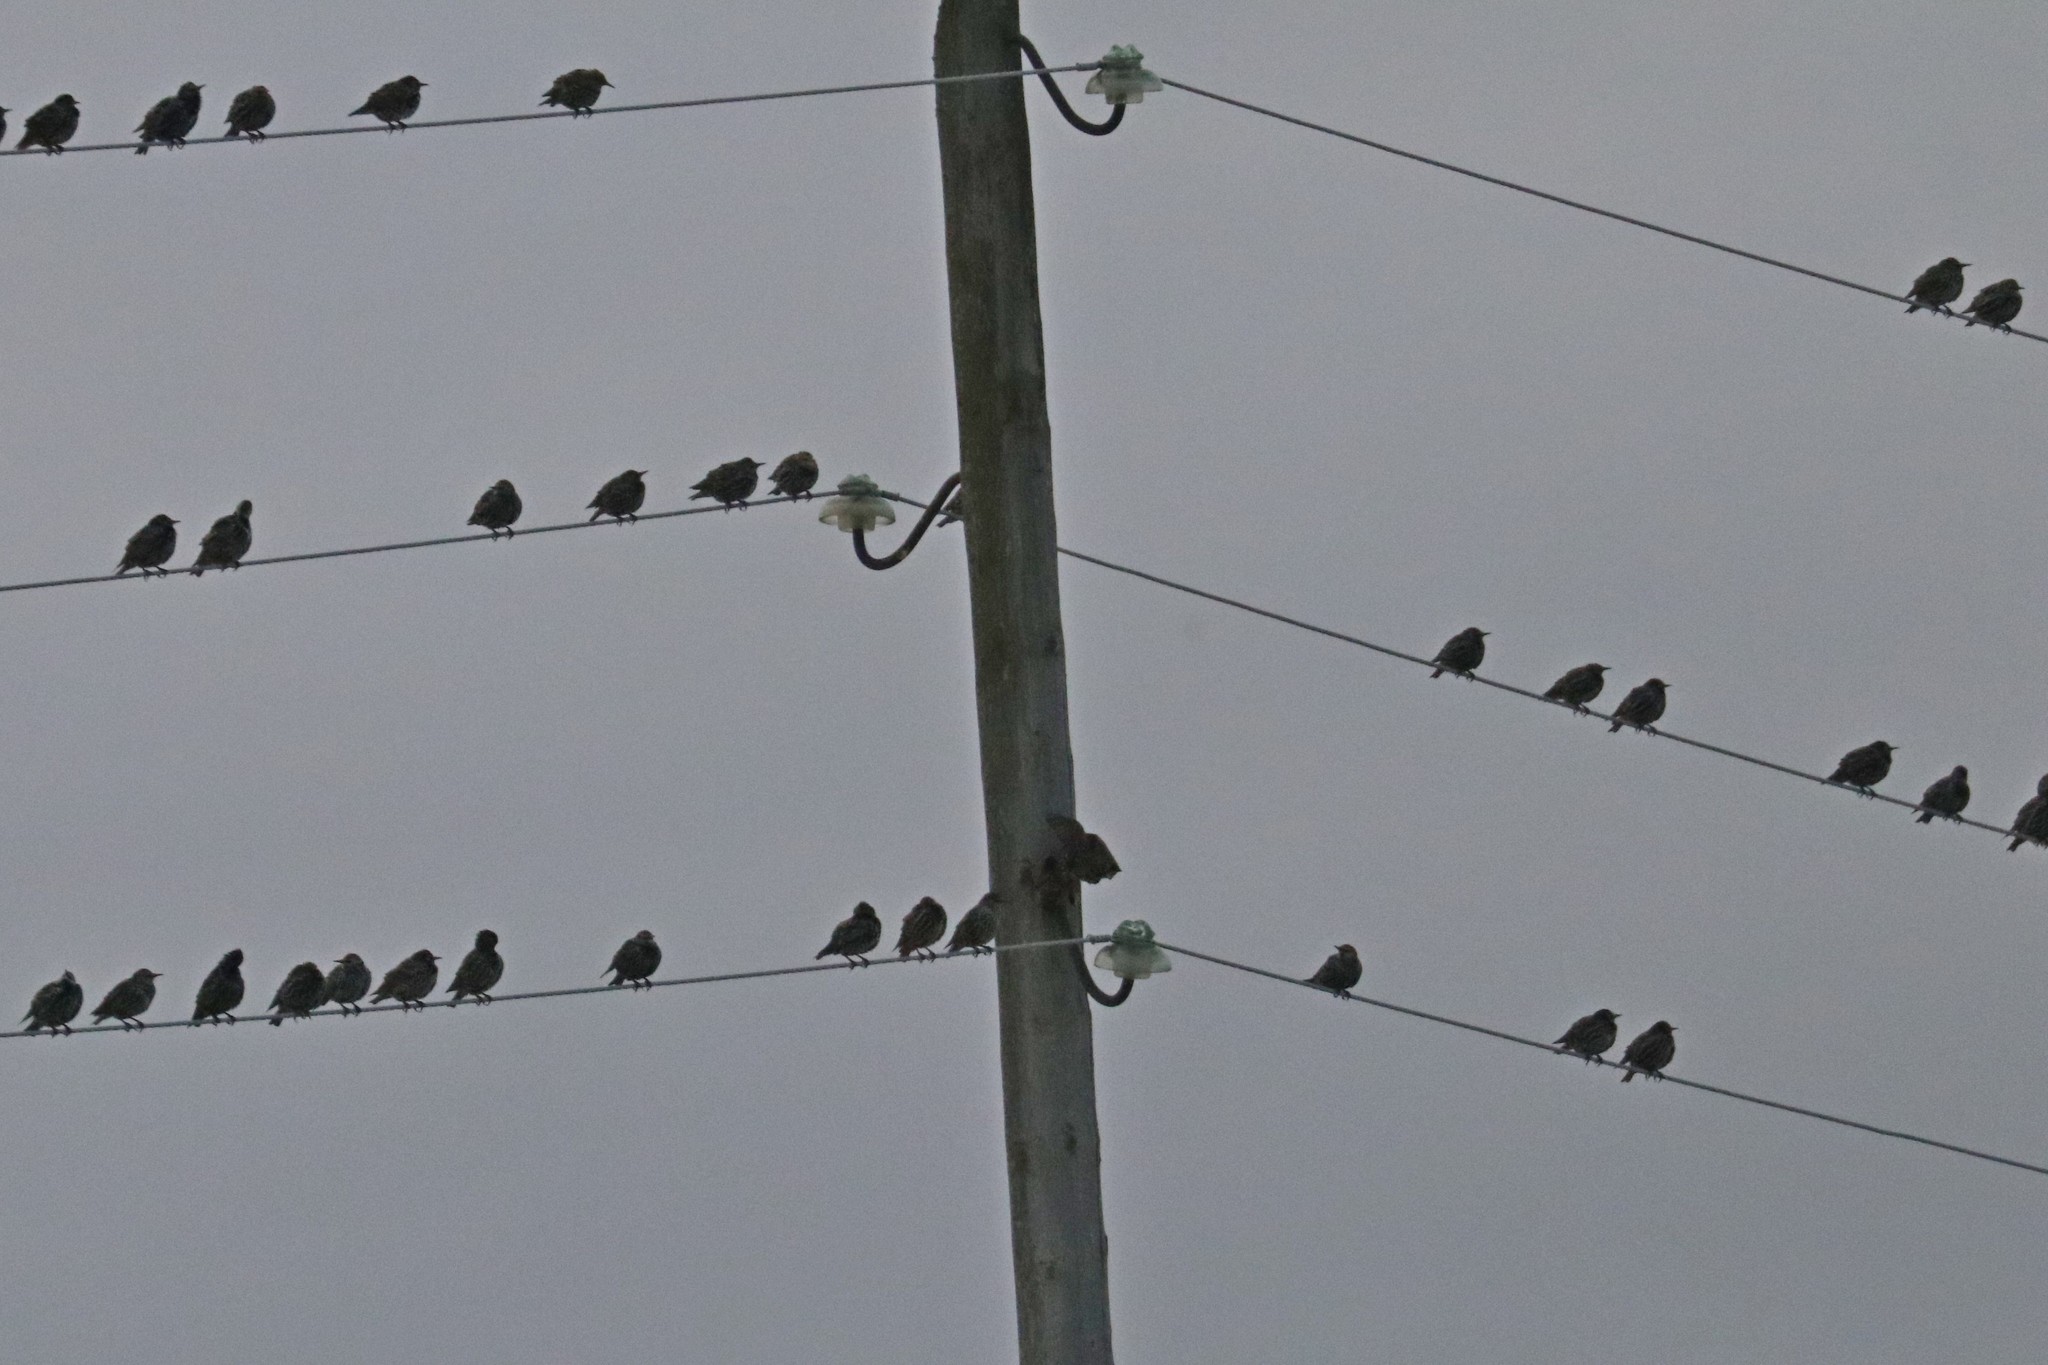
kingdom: Animalia
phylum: Chordata
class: Aves
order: Passeriformes
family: Sturnidae
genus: Sturnus
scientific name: Sturnus vulgaris
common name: Common starling
